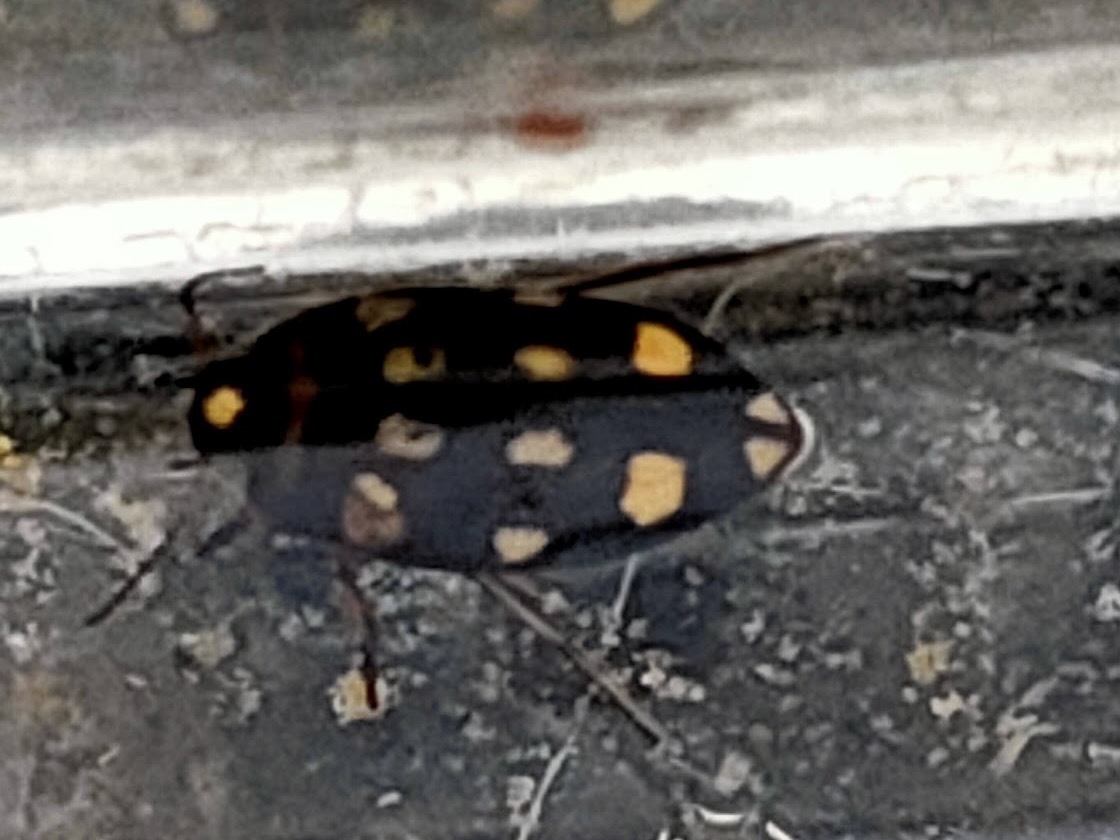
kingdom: Animalia
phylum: Arthropoda
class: Insecta
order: Coleoptera
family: Dytiscidae
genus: Neonectes
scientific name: Neonectes natrix
